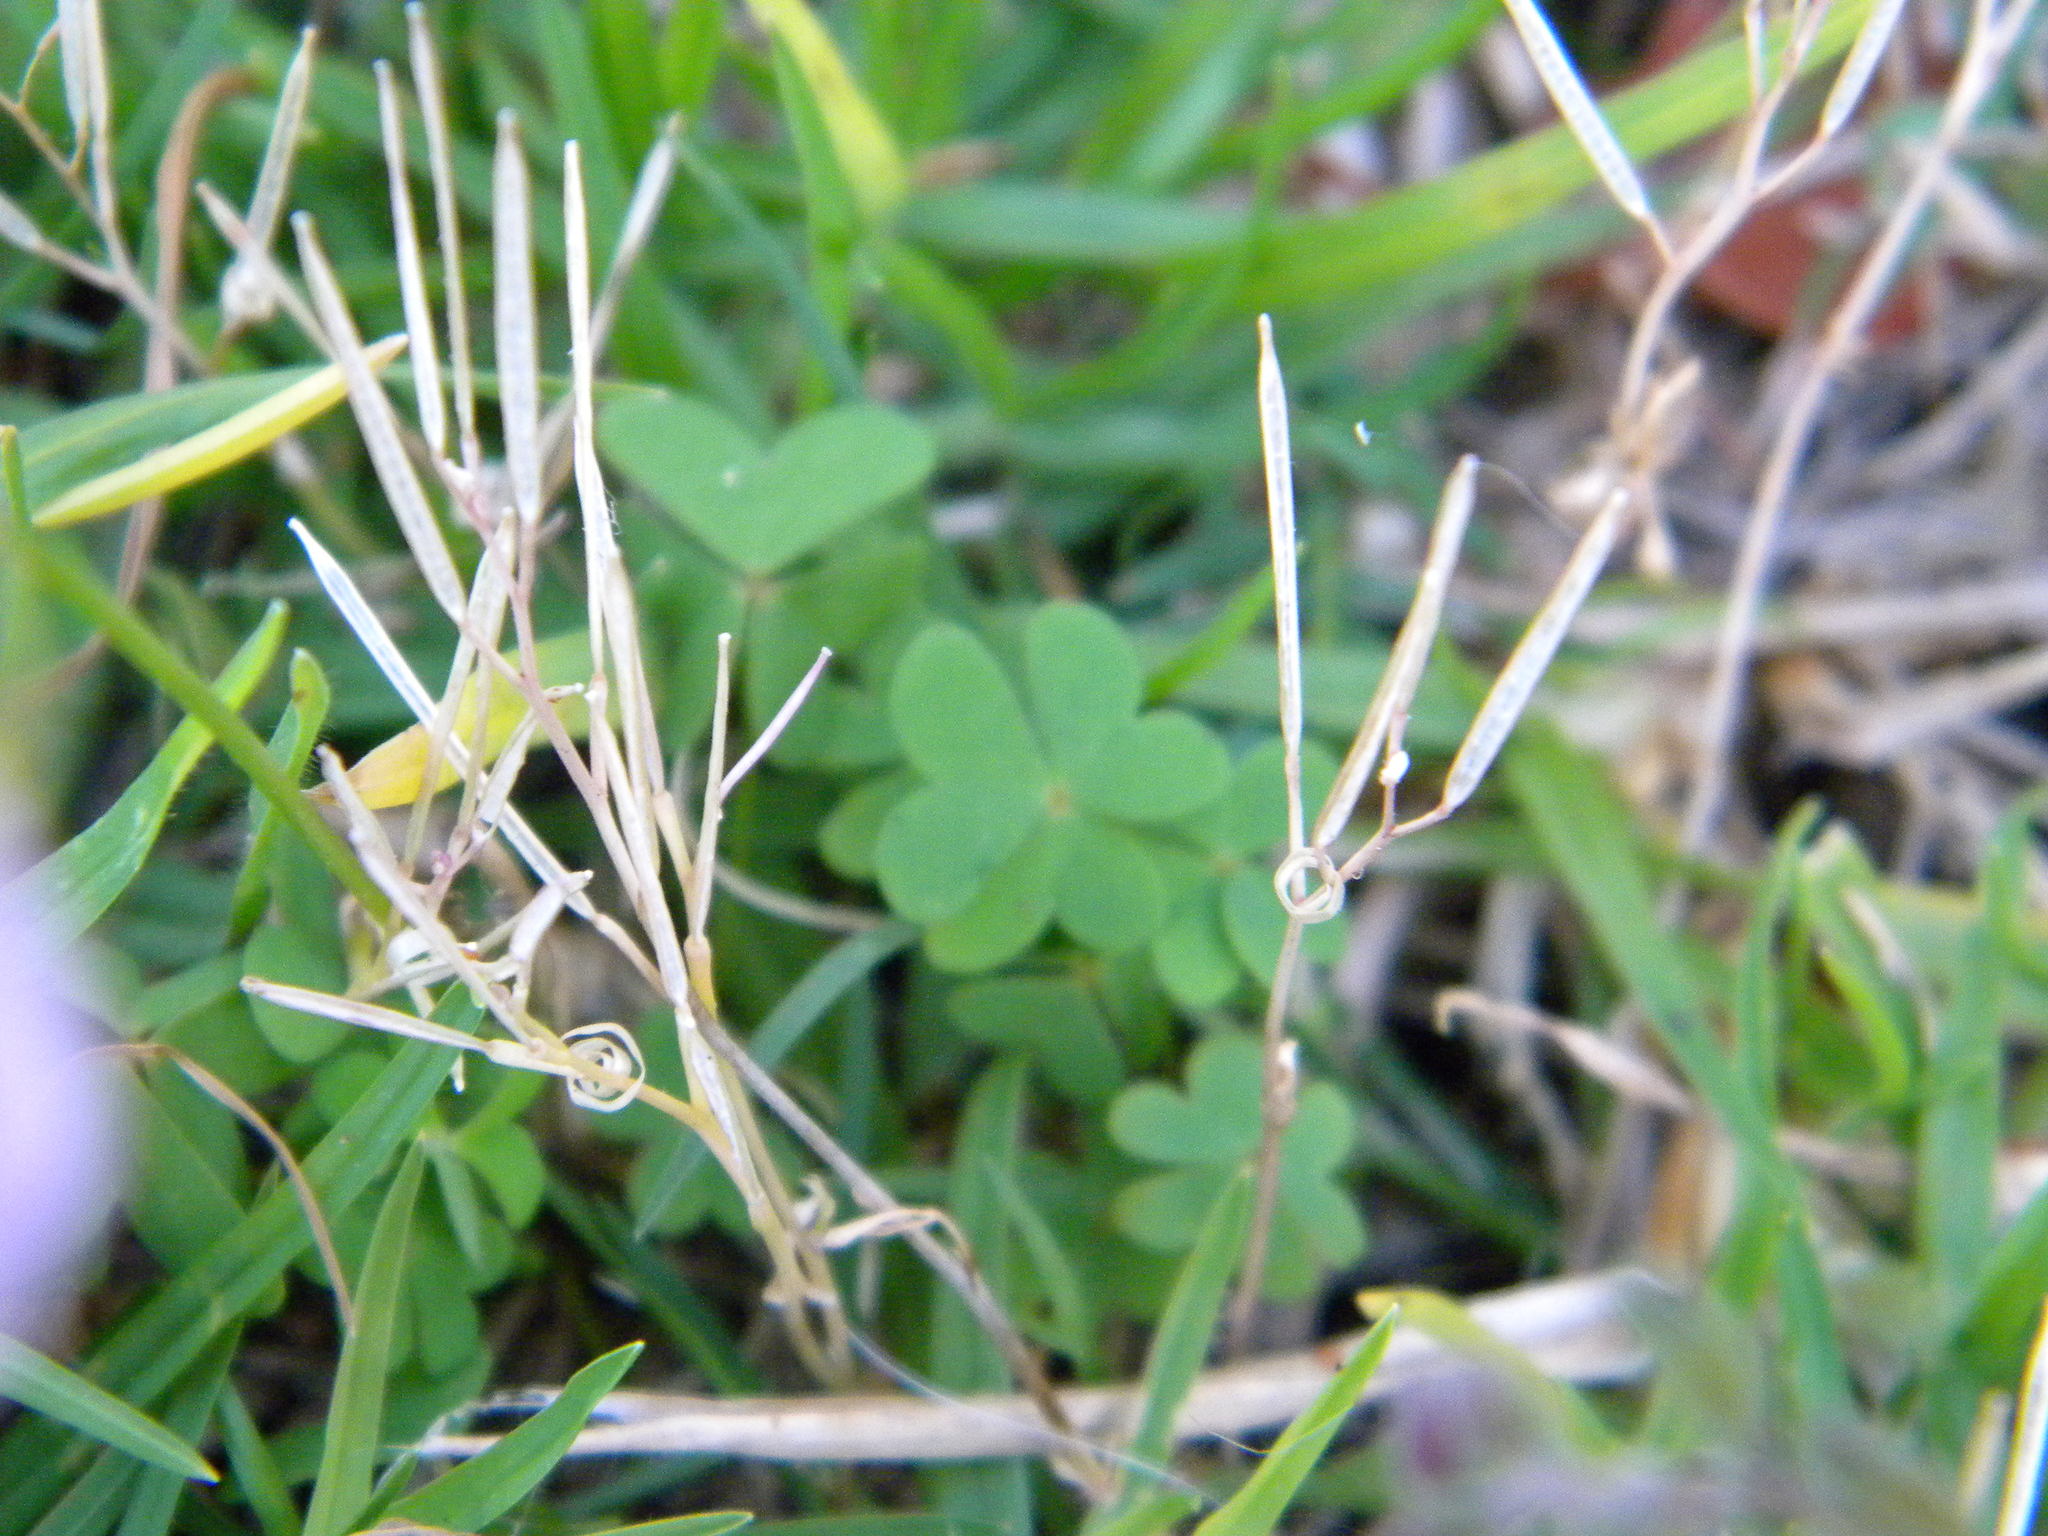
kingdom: Plantae
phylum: Tracheophyta
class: Magnoliopsida
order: Oxalidales
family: Oxalidaceae
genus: Oxalis
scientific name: Oxalis caprina
